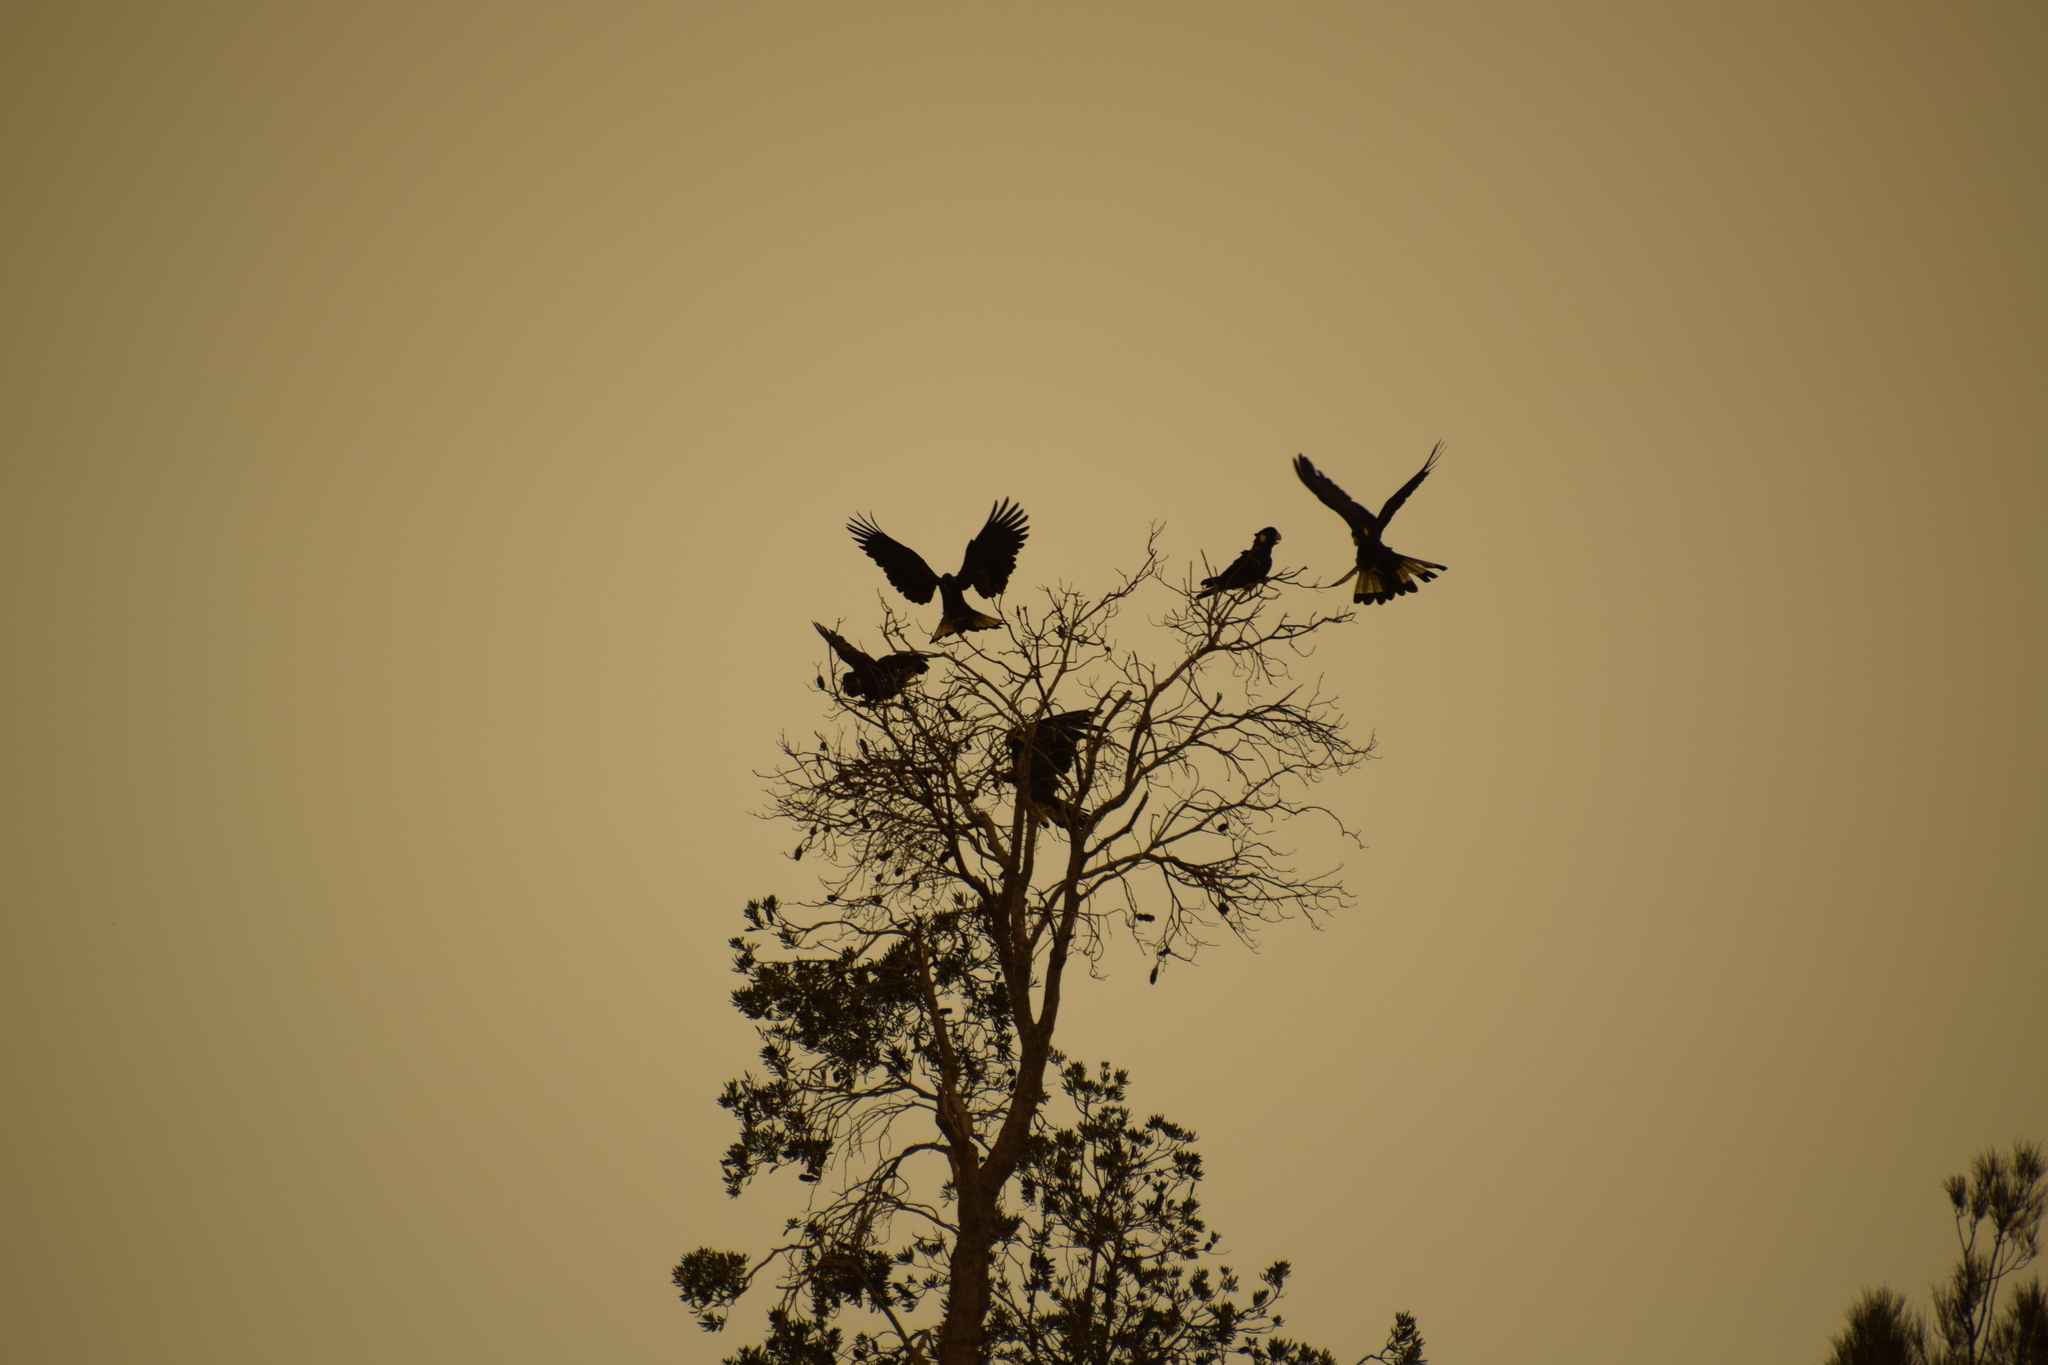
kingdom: Animalia
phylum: Chordata
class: Aves
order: Psittaciformes
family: Cacatuidae
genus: Zanda
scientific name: Zanda funerea
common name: Yellow-tailed black-cockatoo
